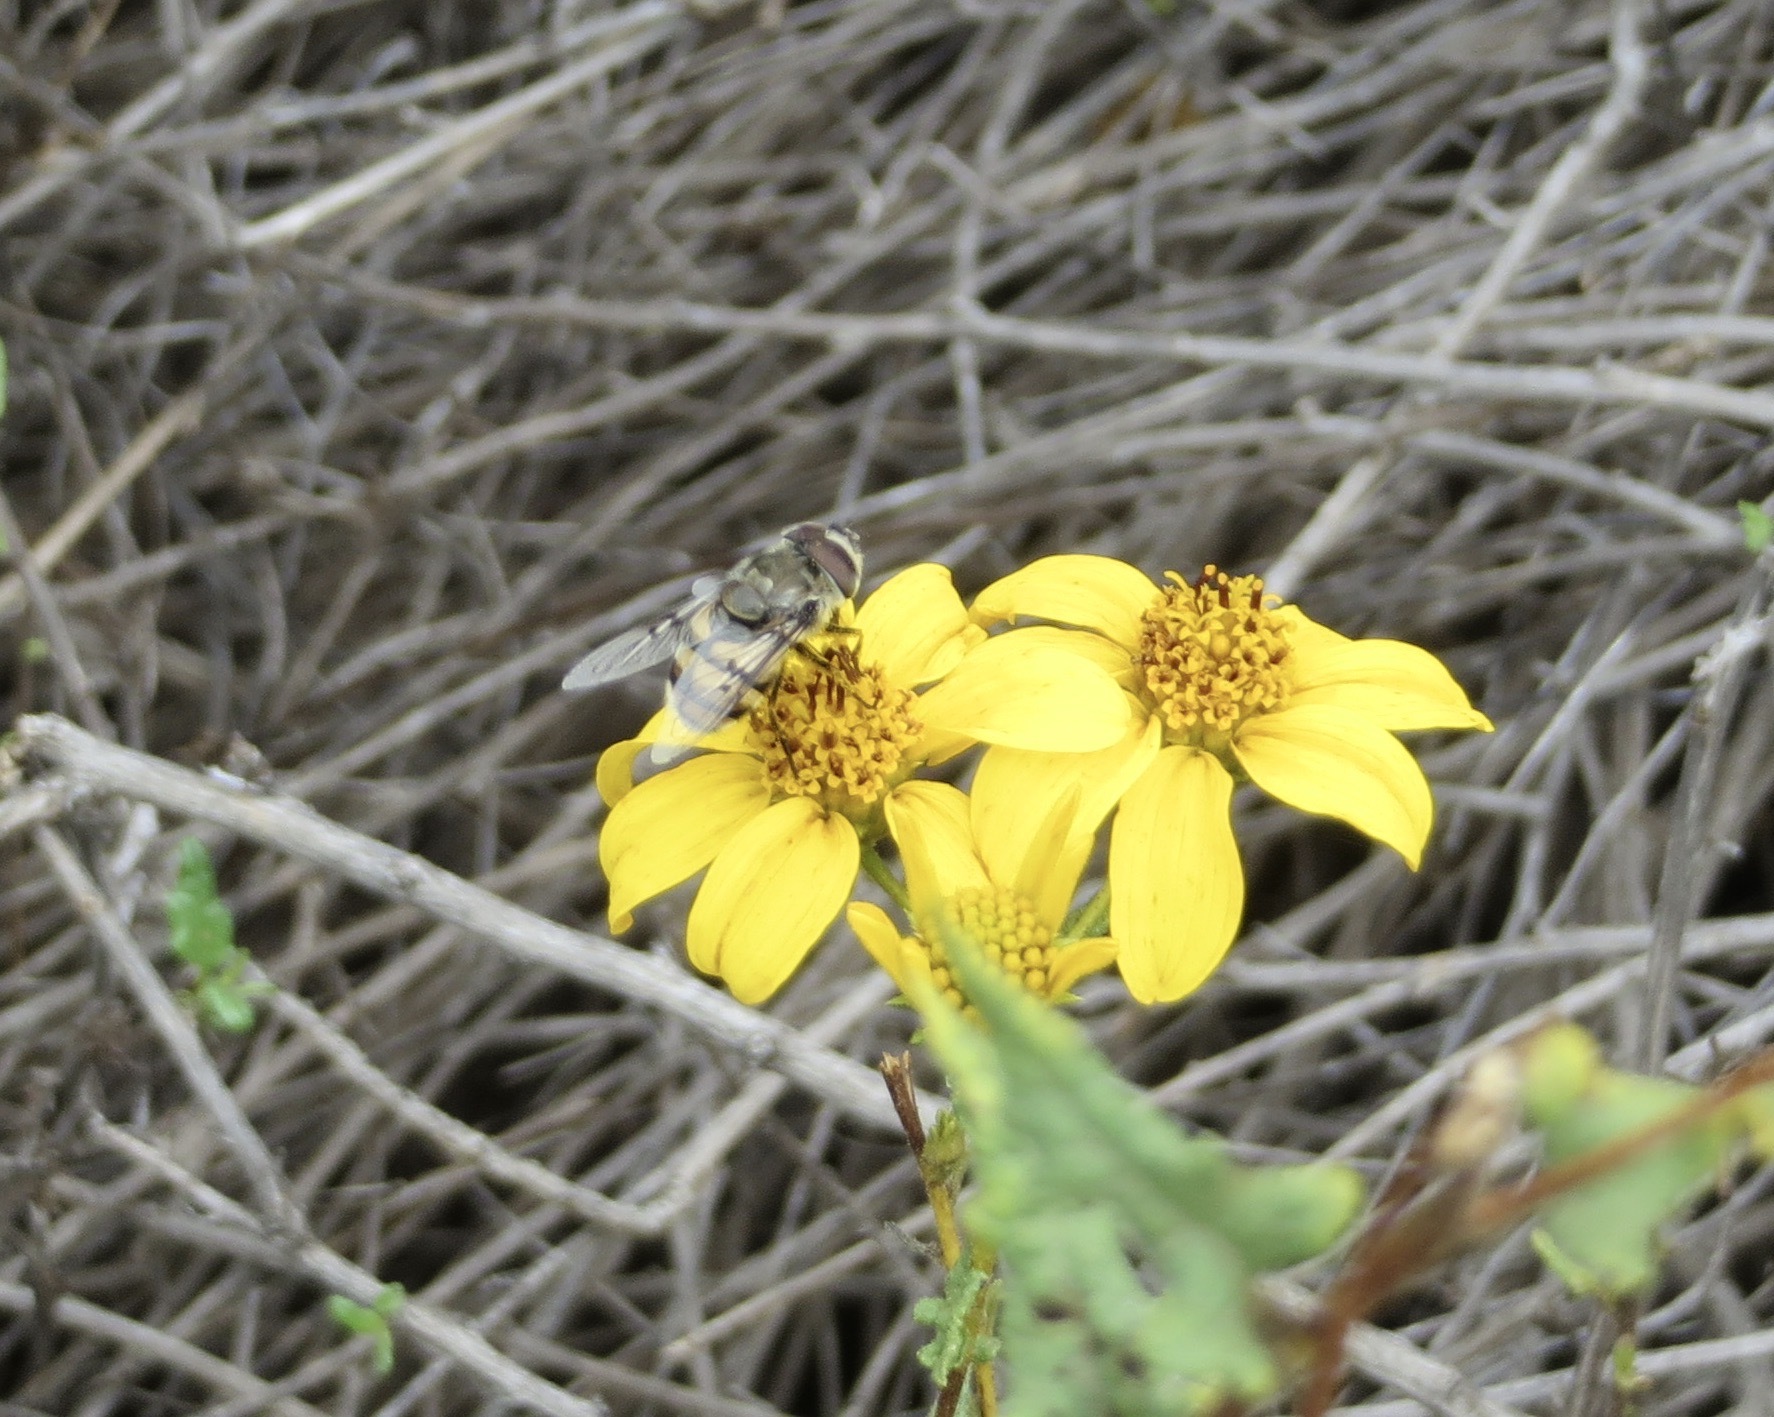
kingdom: Animalia
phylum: Arthropoda
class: Insecta
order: Diptera
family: Syrphidae
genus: Copestylum
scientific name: Copestylum avidum
